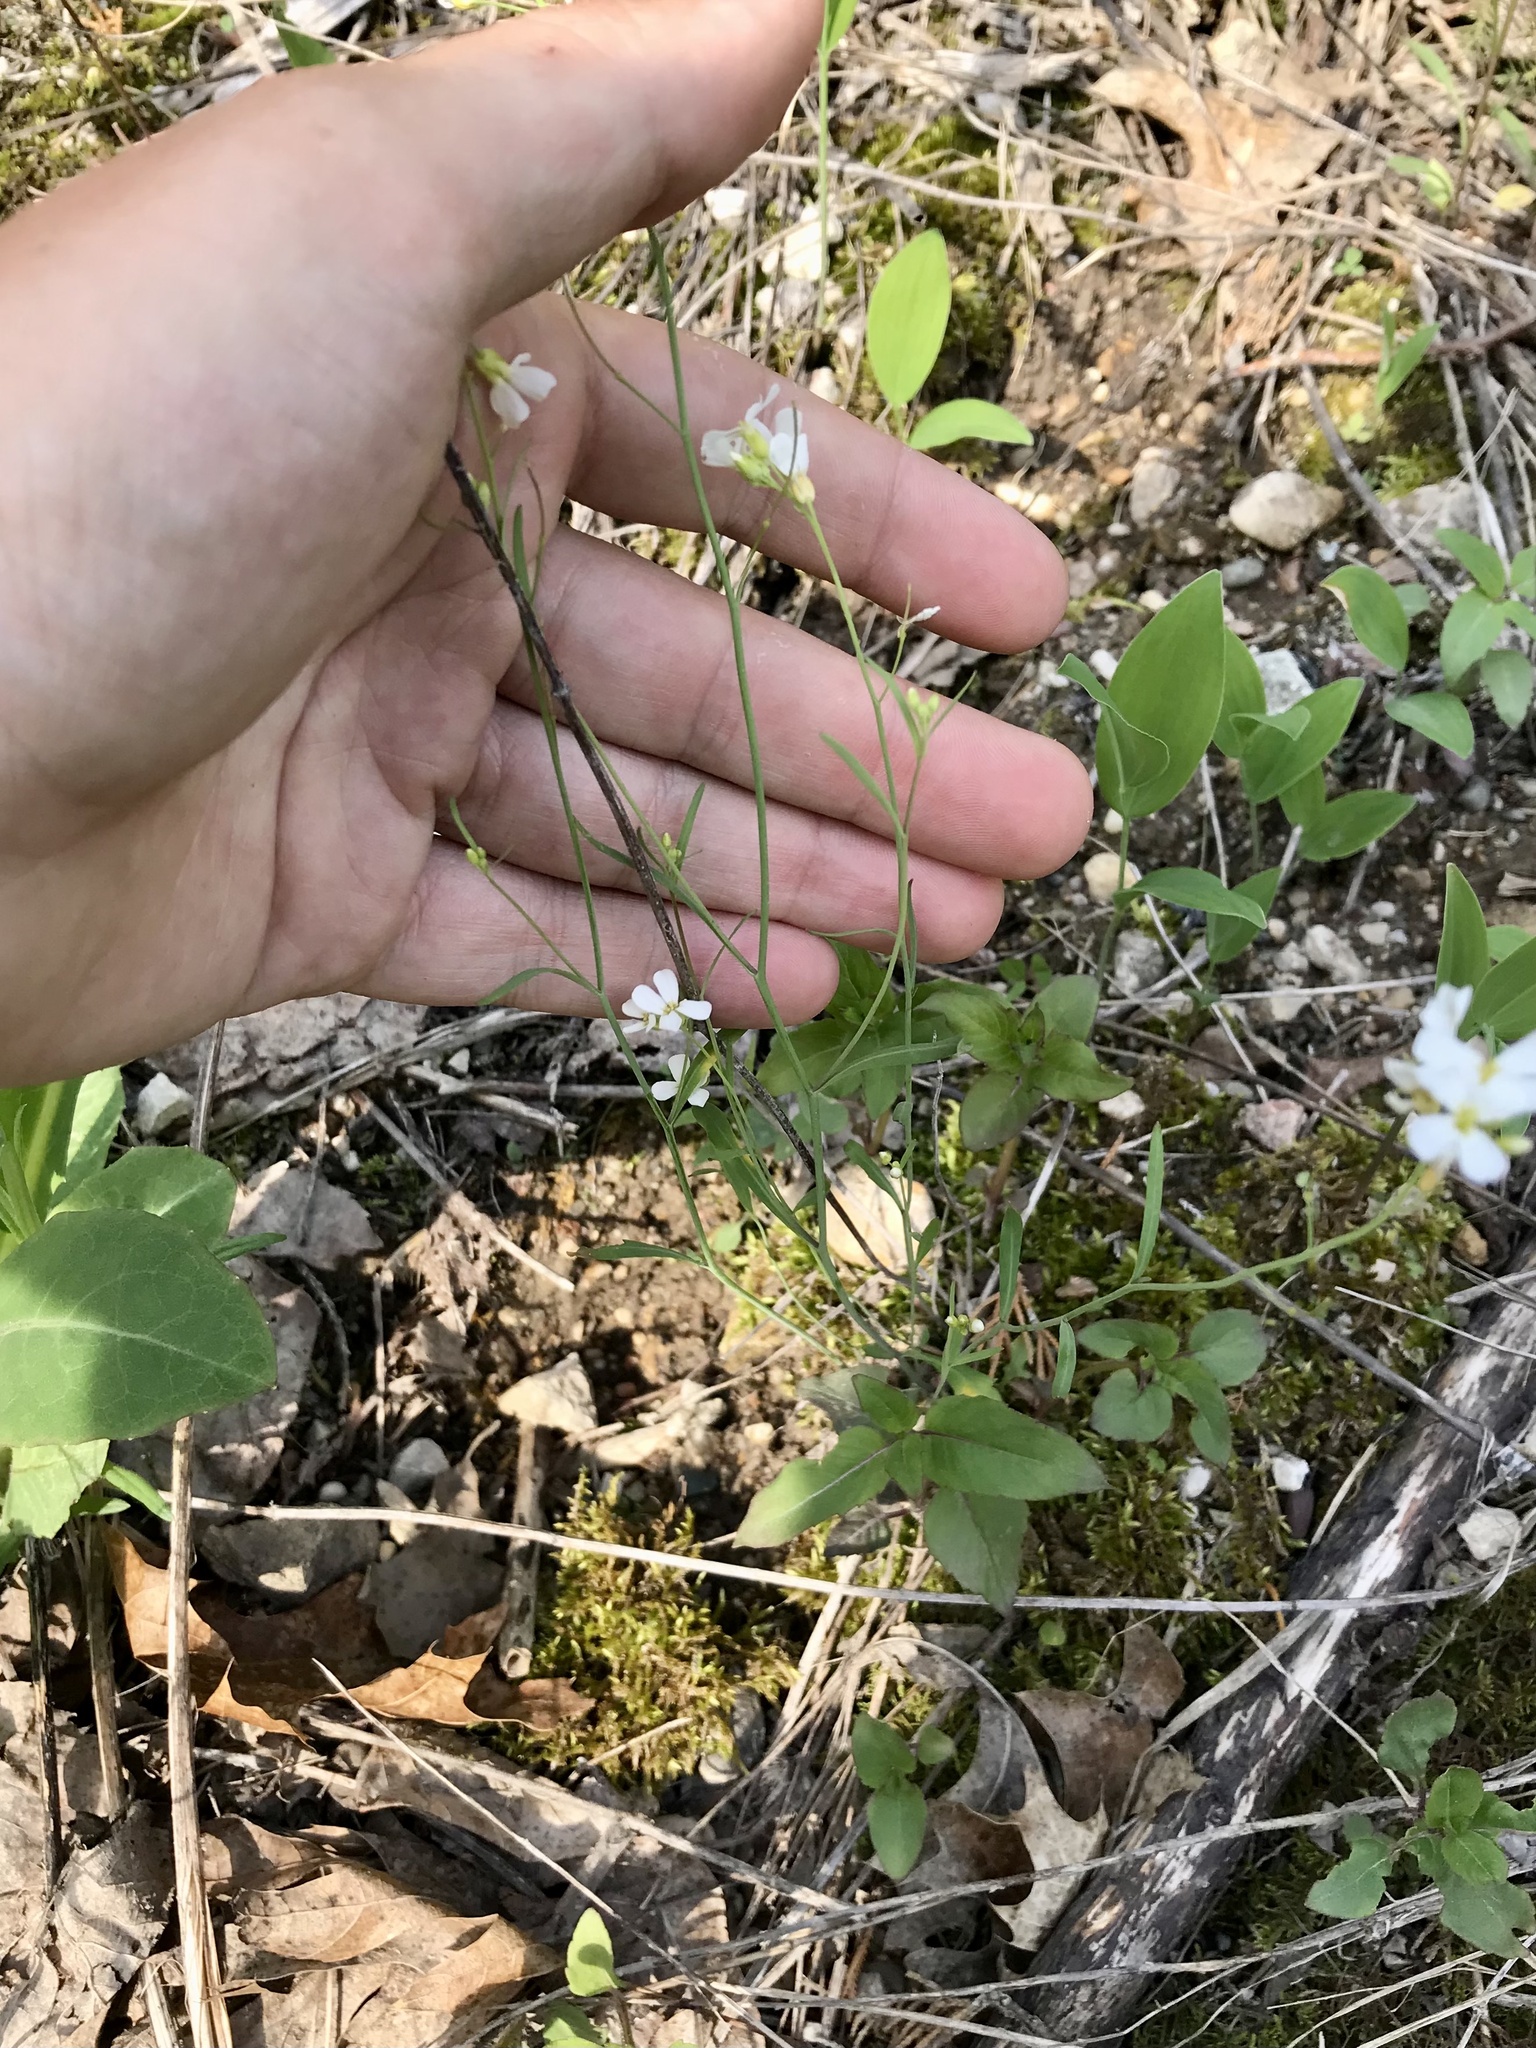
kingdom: Plantae
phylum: Tracheophyta
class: Magnoliopsida
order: Brassicales
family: Brassicaceae
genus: Arabidopsis
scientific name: Arabidopsis lyrata
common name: Lyrate rockcress
